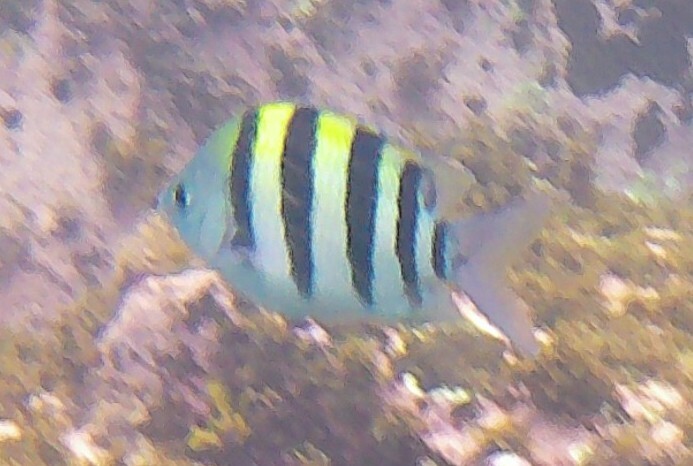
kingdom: Animalia
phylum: Chordata
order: Perciformes
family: Pomacentridae
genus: Abudefduf
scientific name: Abudefduf vaigiensis
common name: Indo-pacific sergeant
